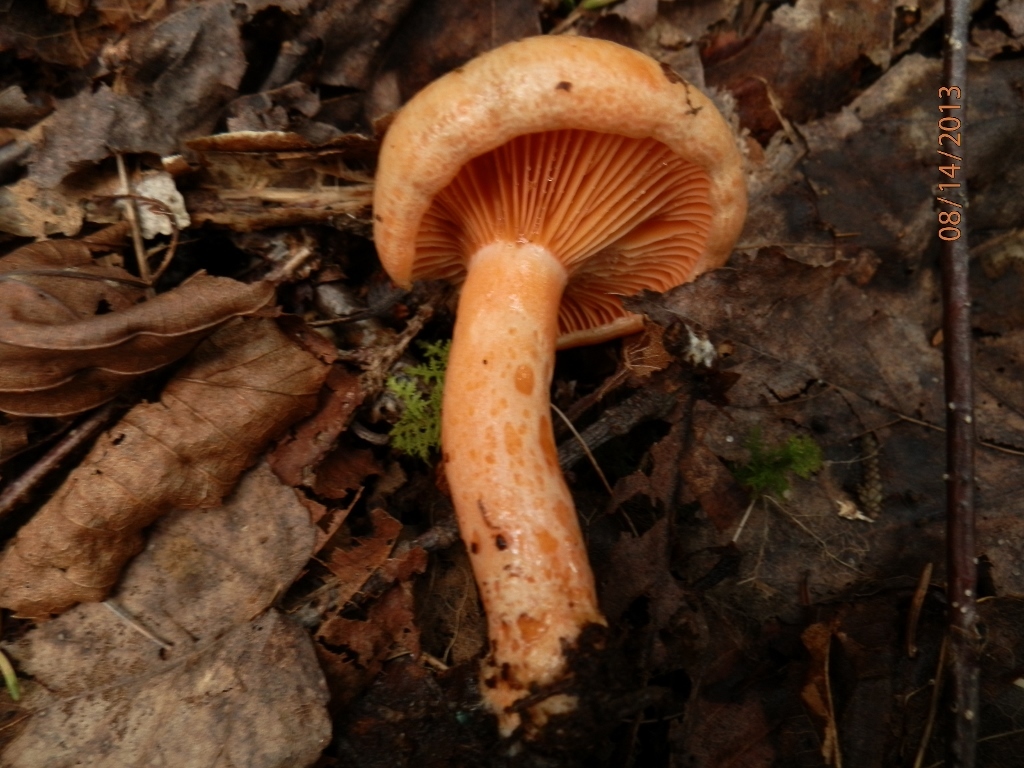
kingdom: Fungi
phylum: Basidiomycota
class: Agaricomycetes
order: Russulales
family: Russulaceae
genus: Lactarius
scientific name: Lactarius salmonicolor
